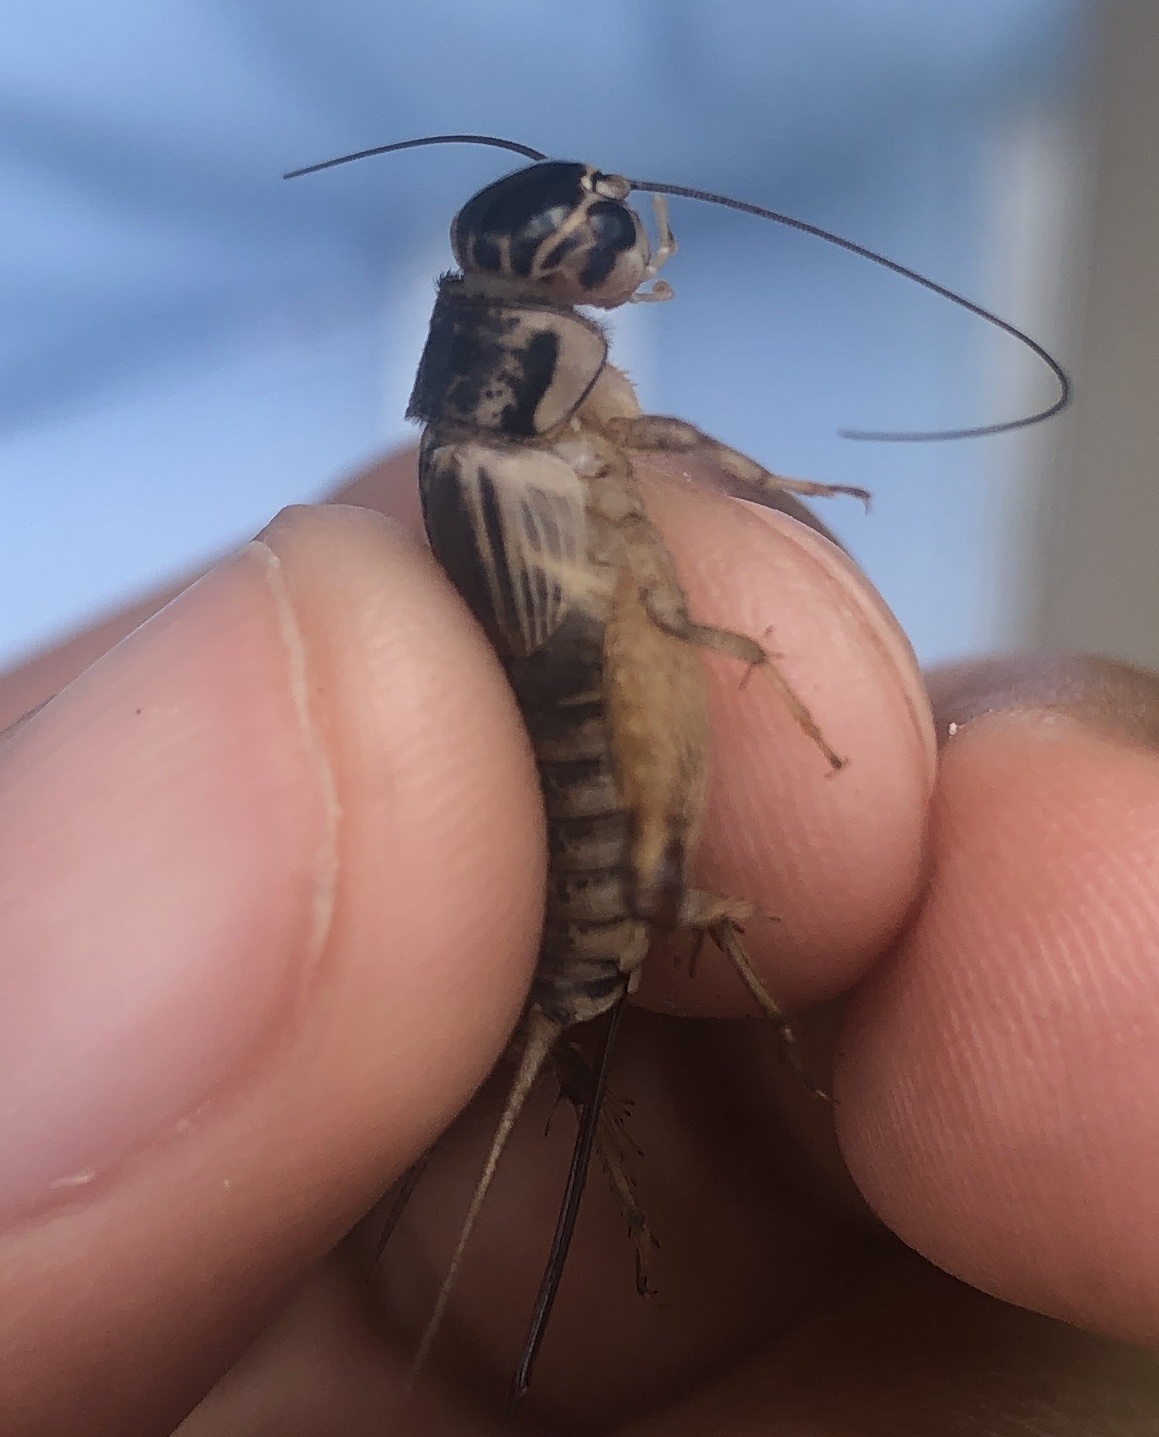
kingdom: Animalia
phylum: Arthropoda
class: Insecta
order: Orthoptera
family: Gryllidae
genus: Miogryllus
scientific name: Miogryllus verticalis
